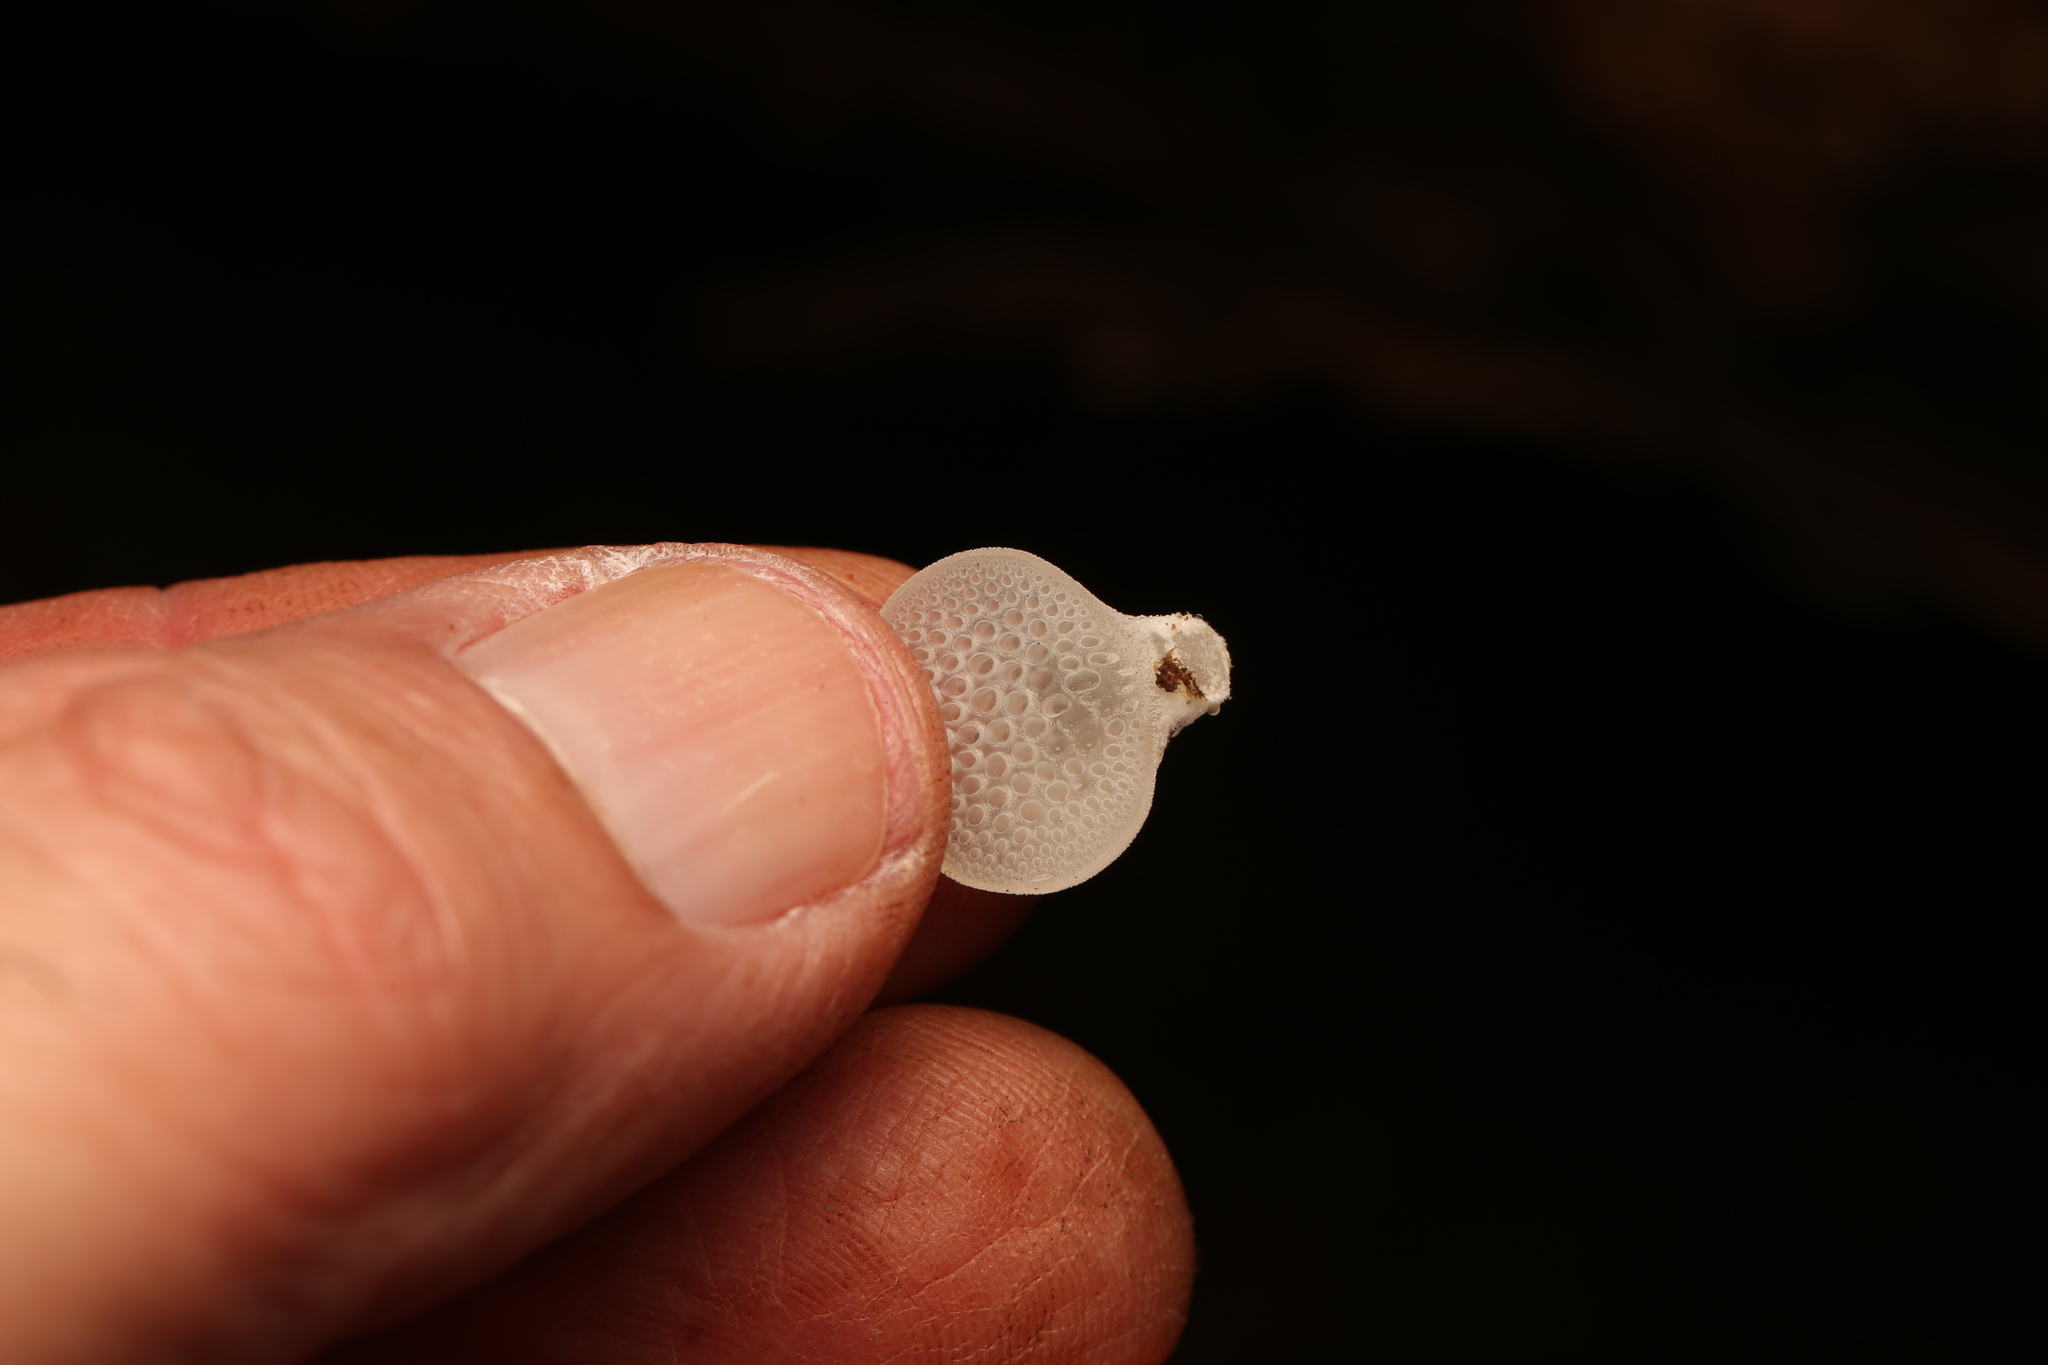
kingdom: Fungi
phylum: Basidiomycota
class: Agaricomycetes
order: Agaricales
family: Mycenaceae
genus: Favolaschia
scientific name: Favolaschia pustulosa
